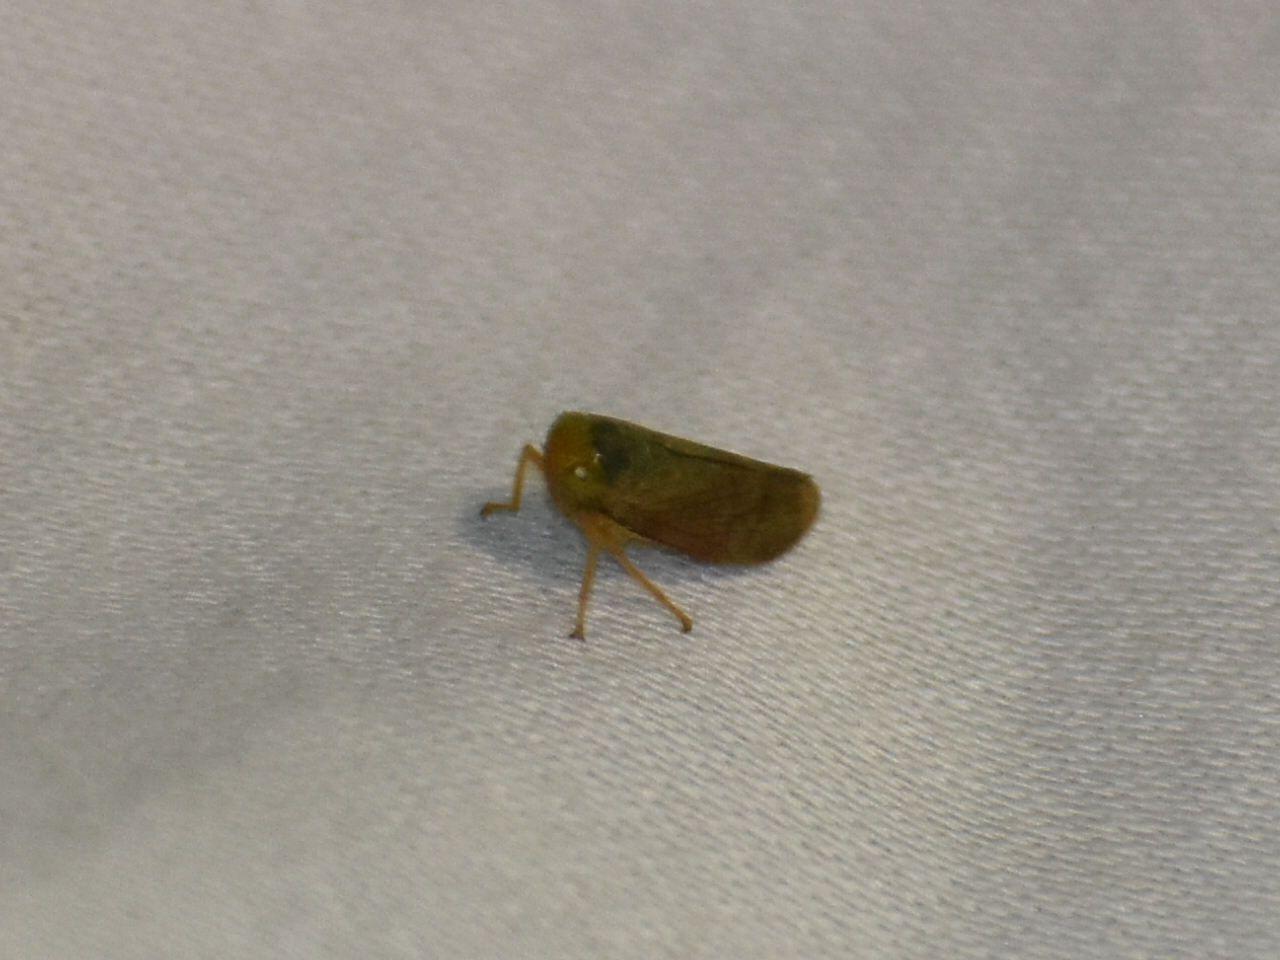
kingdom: Animalia
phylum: Arthropoda
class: Insecta
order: Hemiptera
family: Cicadellidae
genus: Jikradia
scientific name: Jikradia olitoria
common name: Coppery leafhopper
